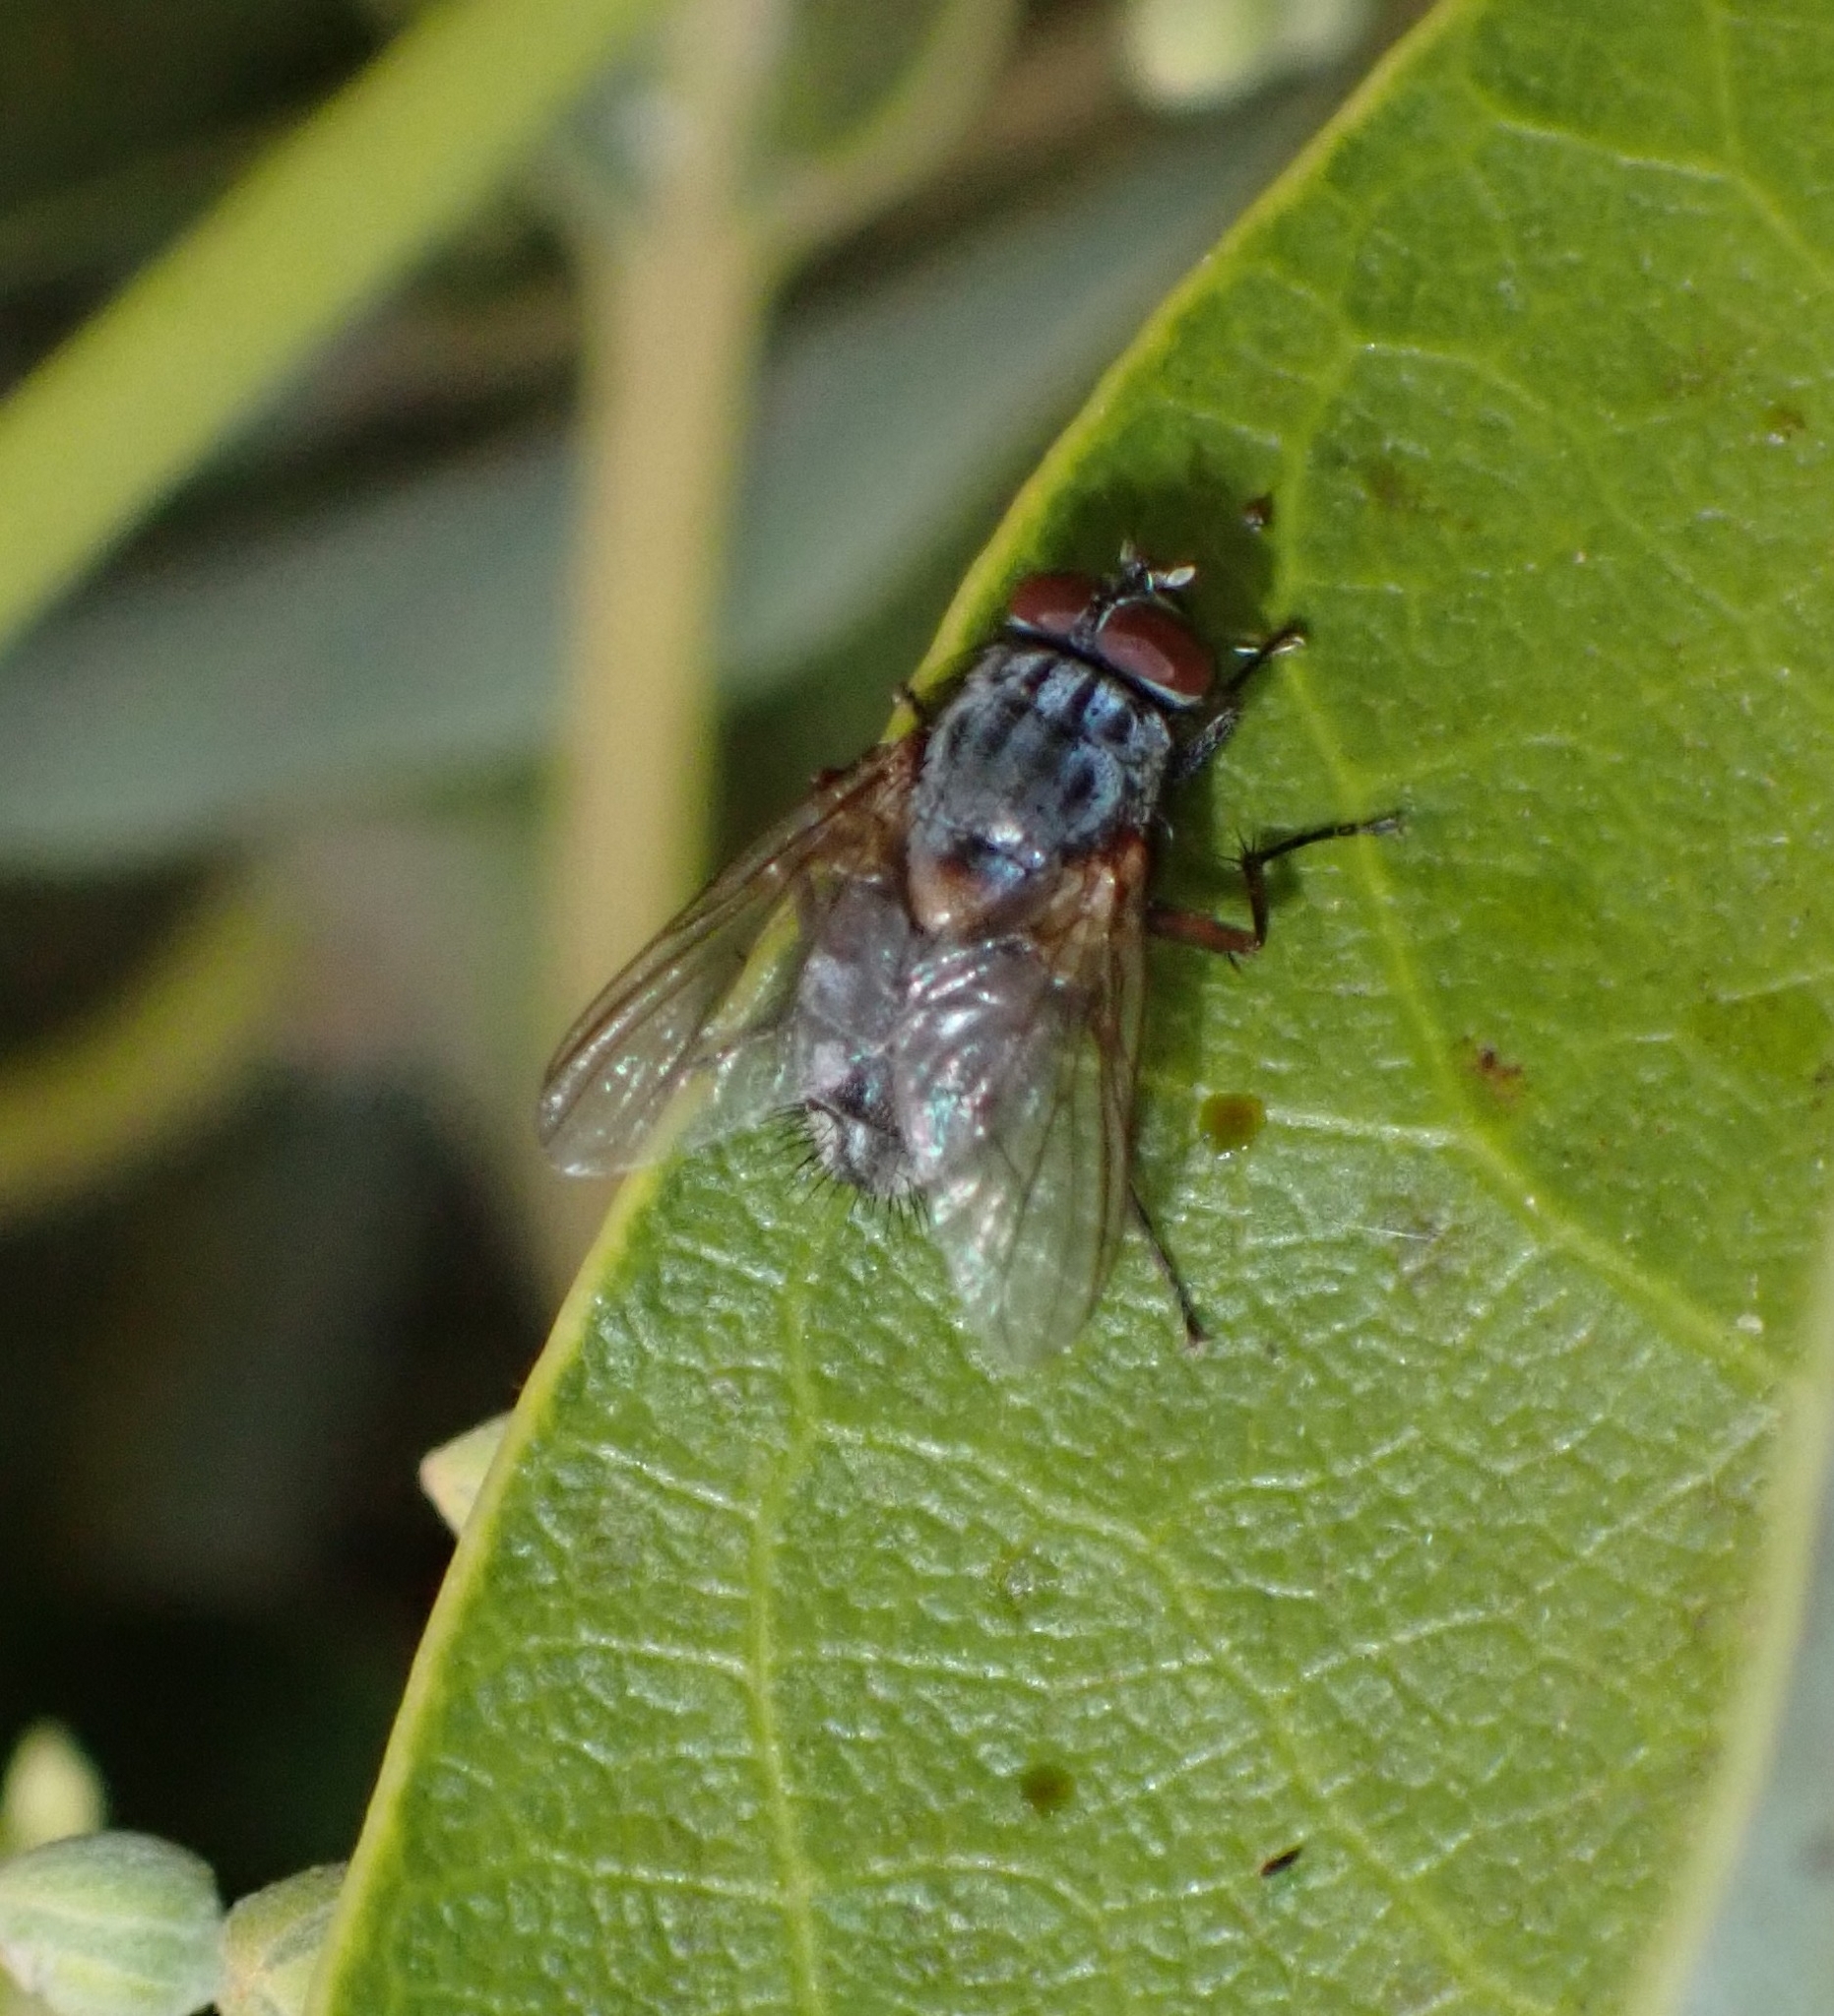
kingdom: Animalia
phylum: Arthropoda
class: Insecta
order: Diptera
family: Muscidae
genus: Muscina
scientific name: Muscina stabulans
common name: False stable fly
